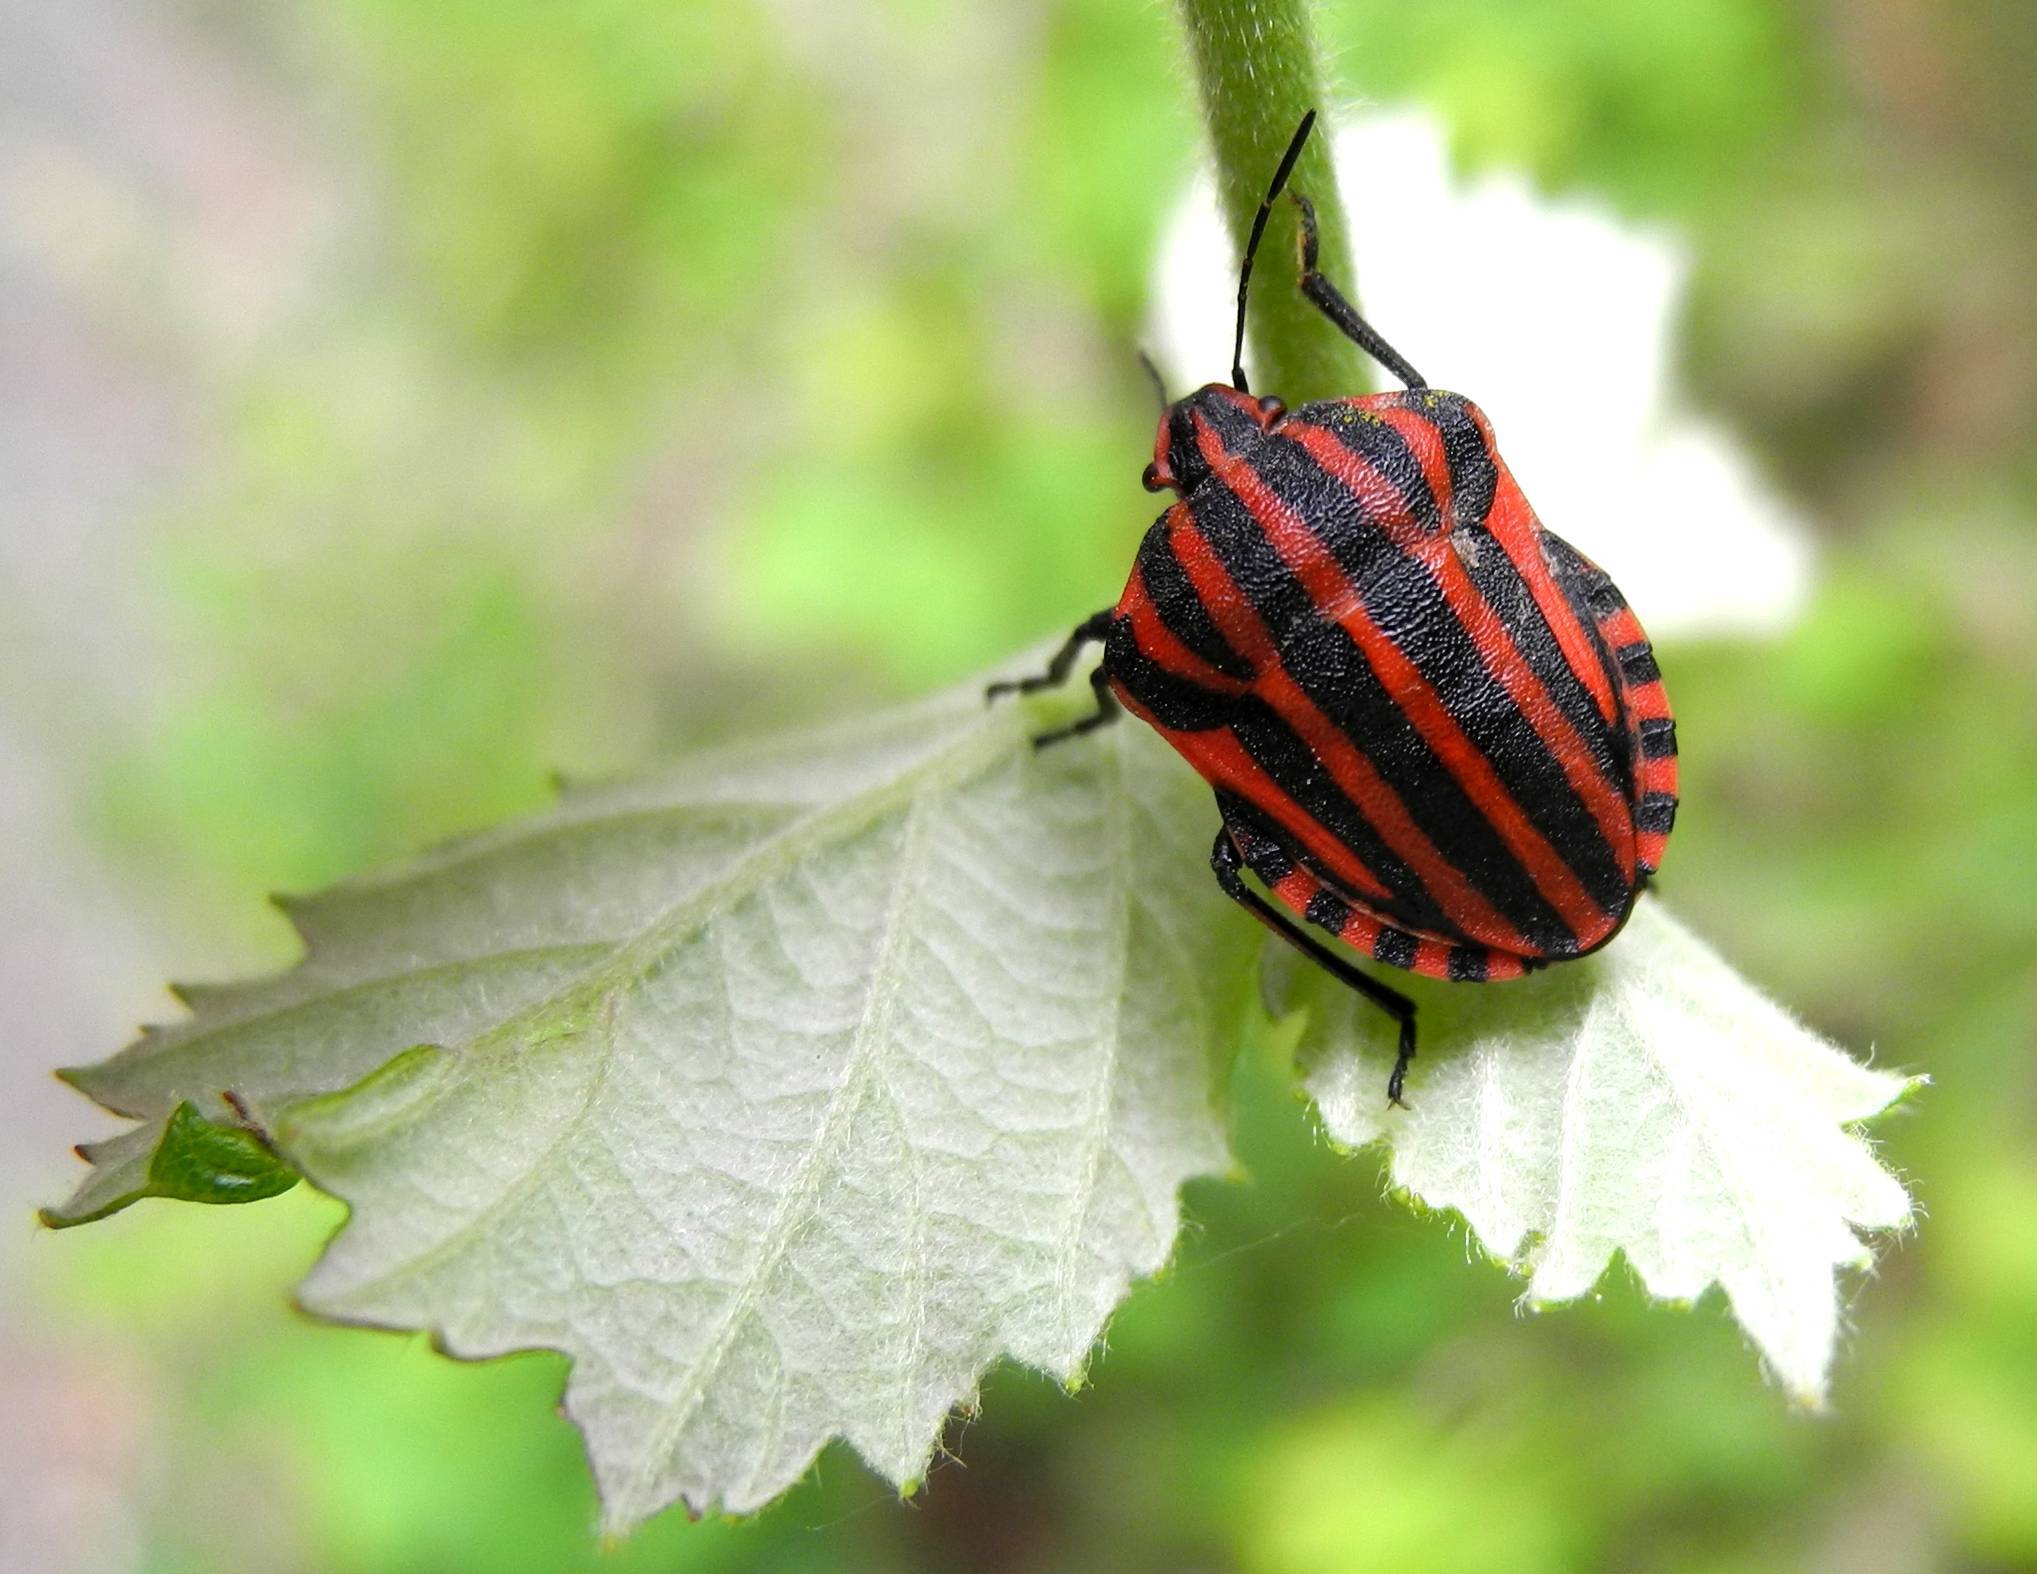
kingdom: Animalia
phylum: Arthropoda
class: Insecta
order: Hemiptera
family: Pentatomidae
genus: Graphosoma
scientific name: Graphosoma italicum
